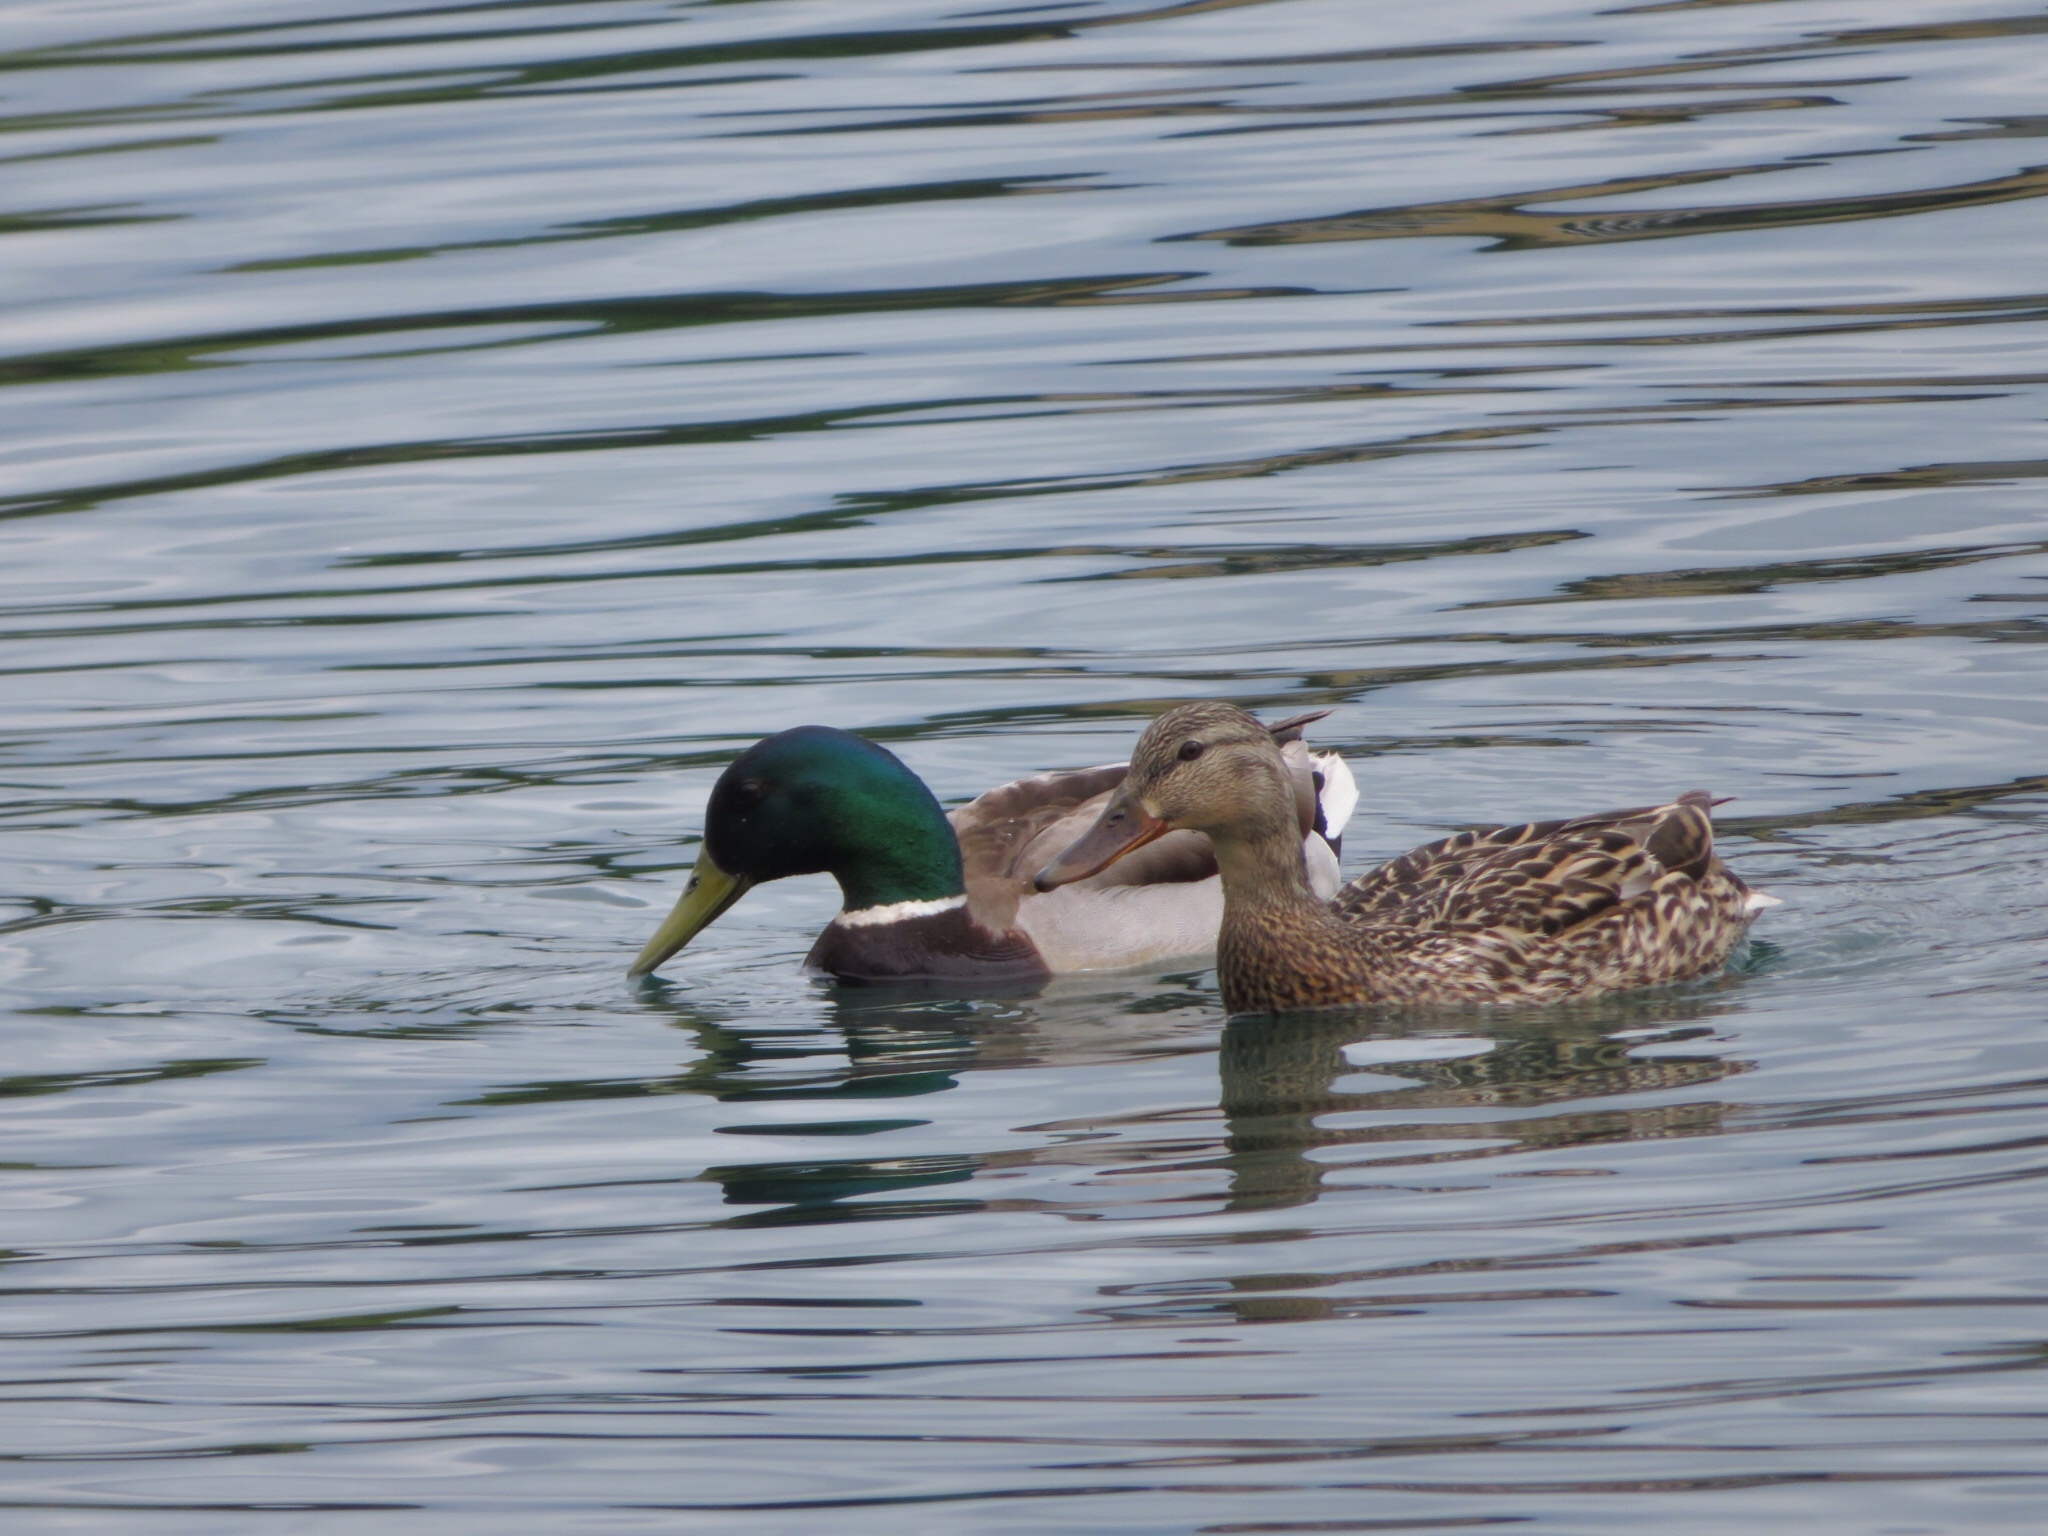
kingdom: Animalia
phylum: Chordata
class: Aves
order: Anseriformes
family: Anatidae
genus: Anas
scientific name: Anas platyrhynchos
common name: Mallard
